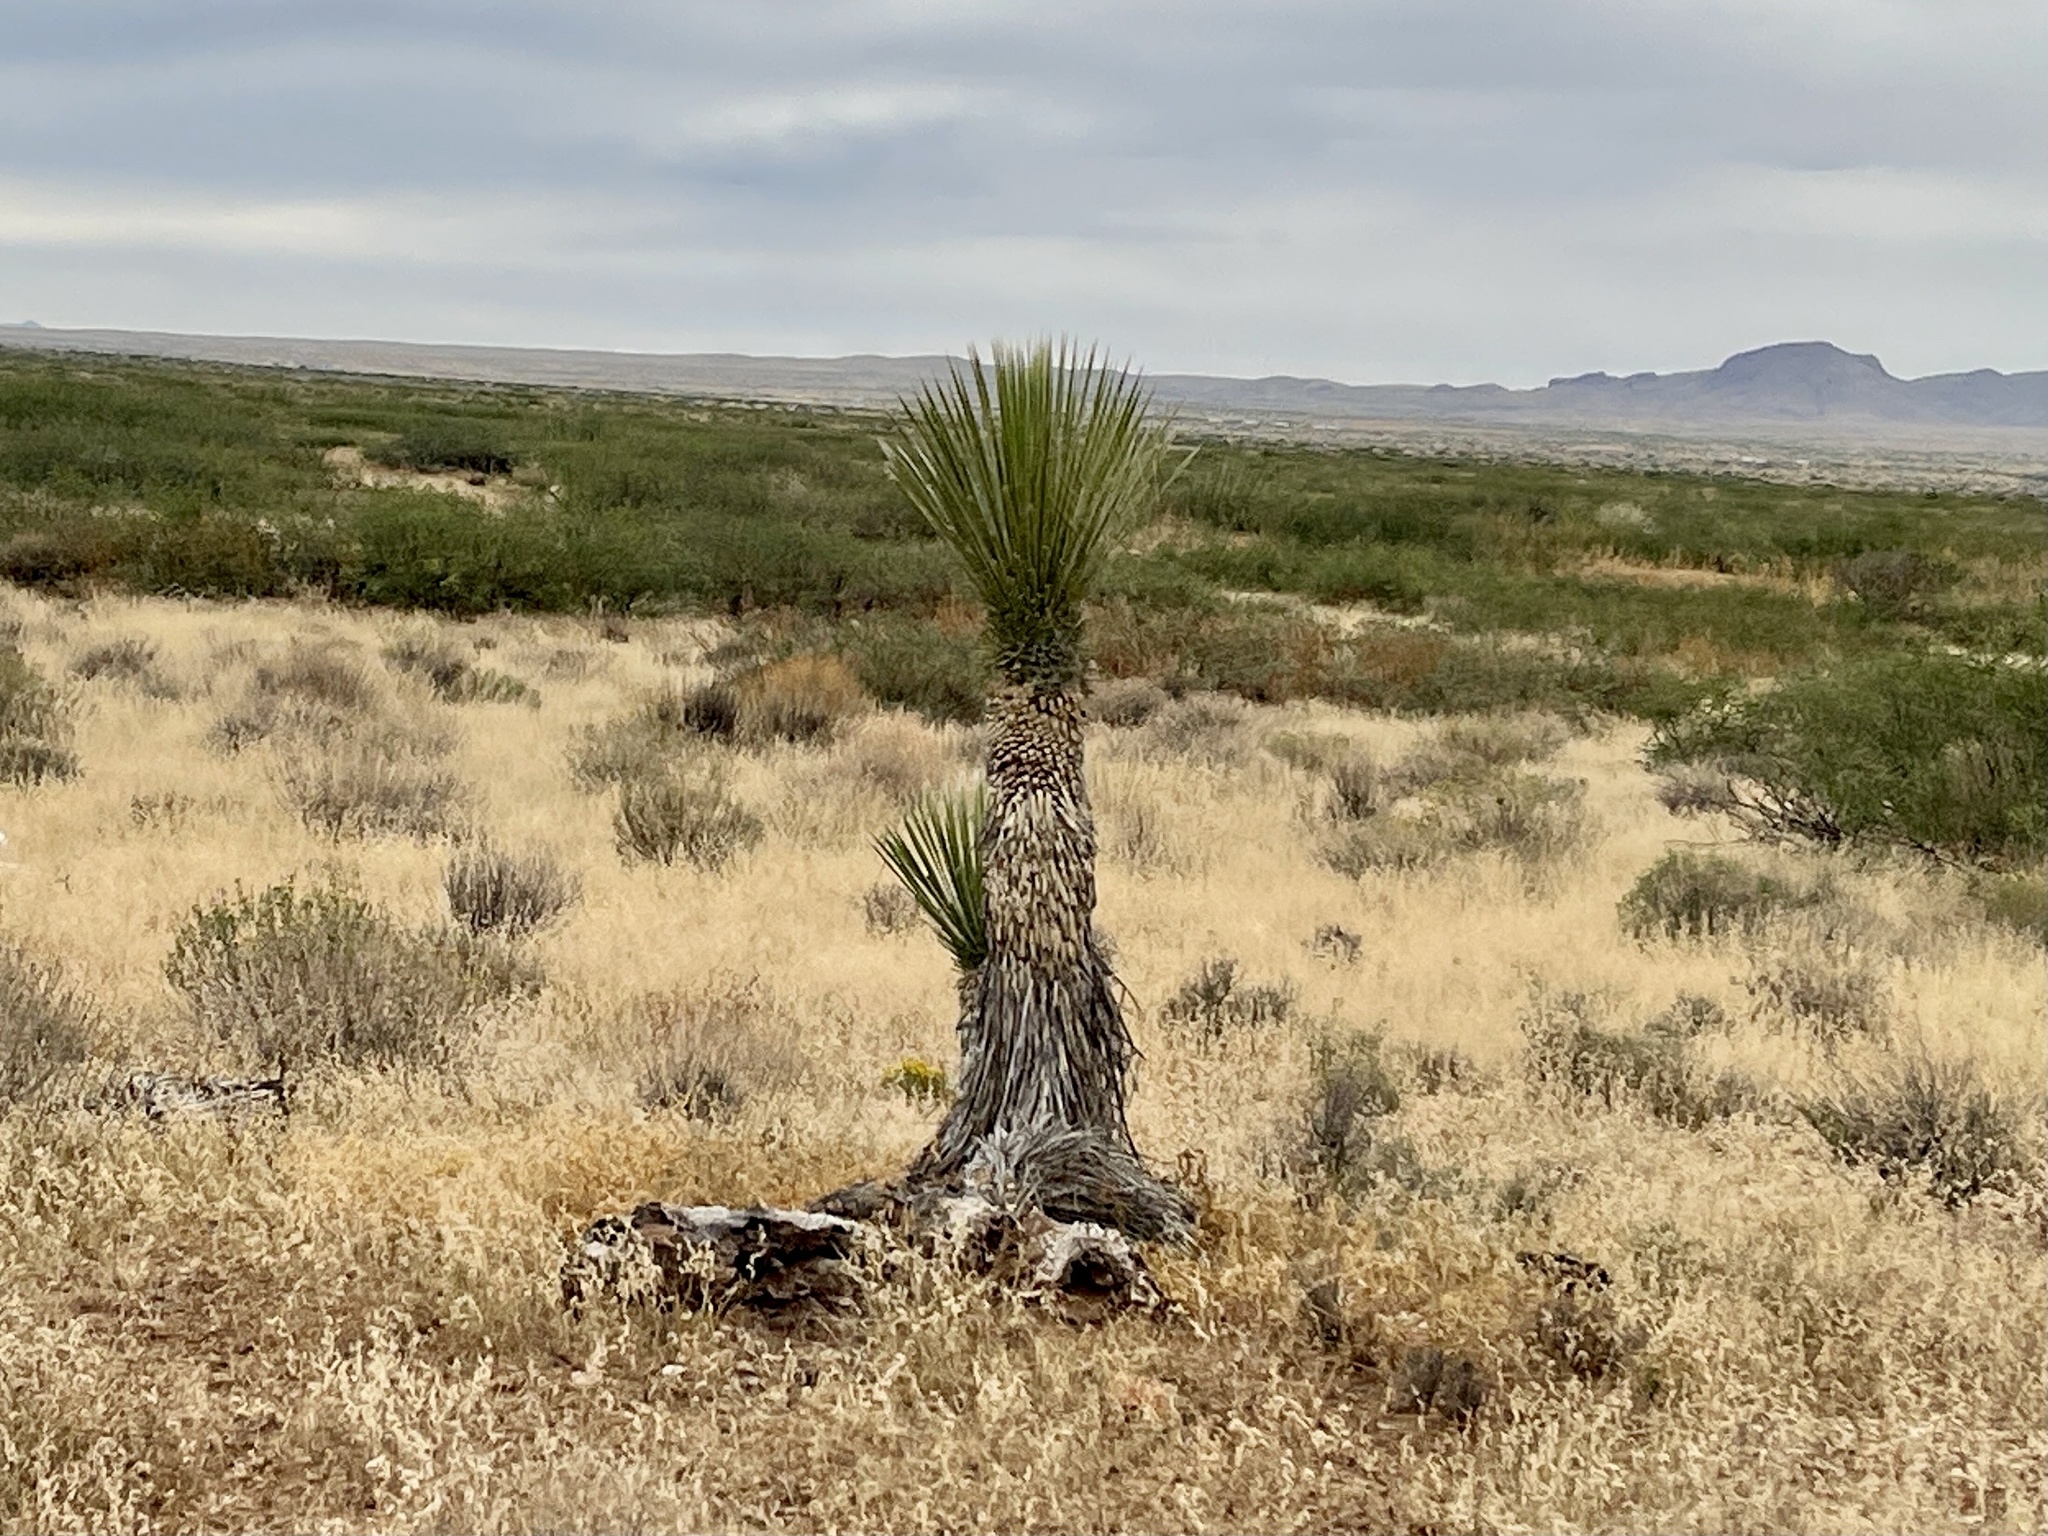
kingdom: Plantae
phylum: Tracheophyta
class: Liliopsida
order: Asparagales
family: Asparagaceae
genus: Yucca
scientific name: Yucca elata
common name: Palmella
